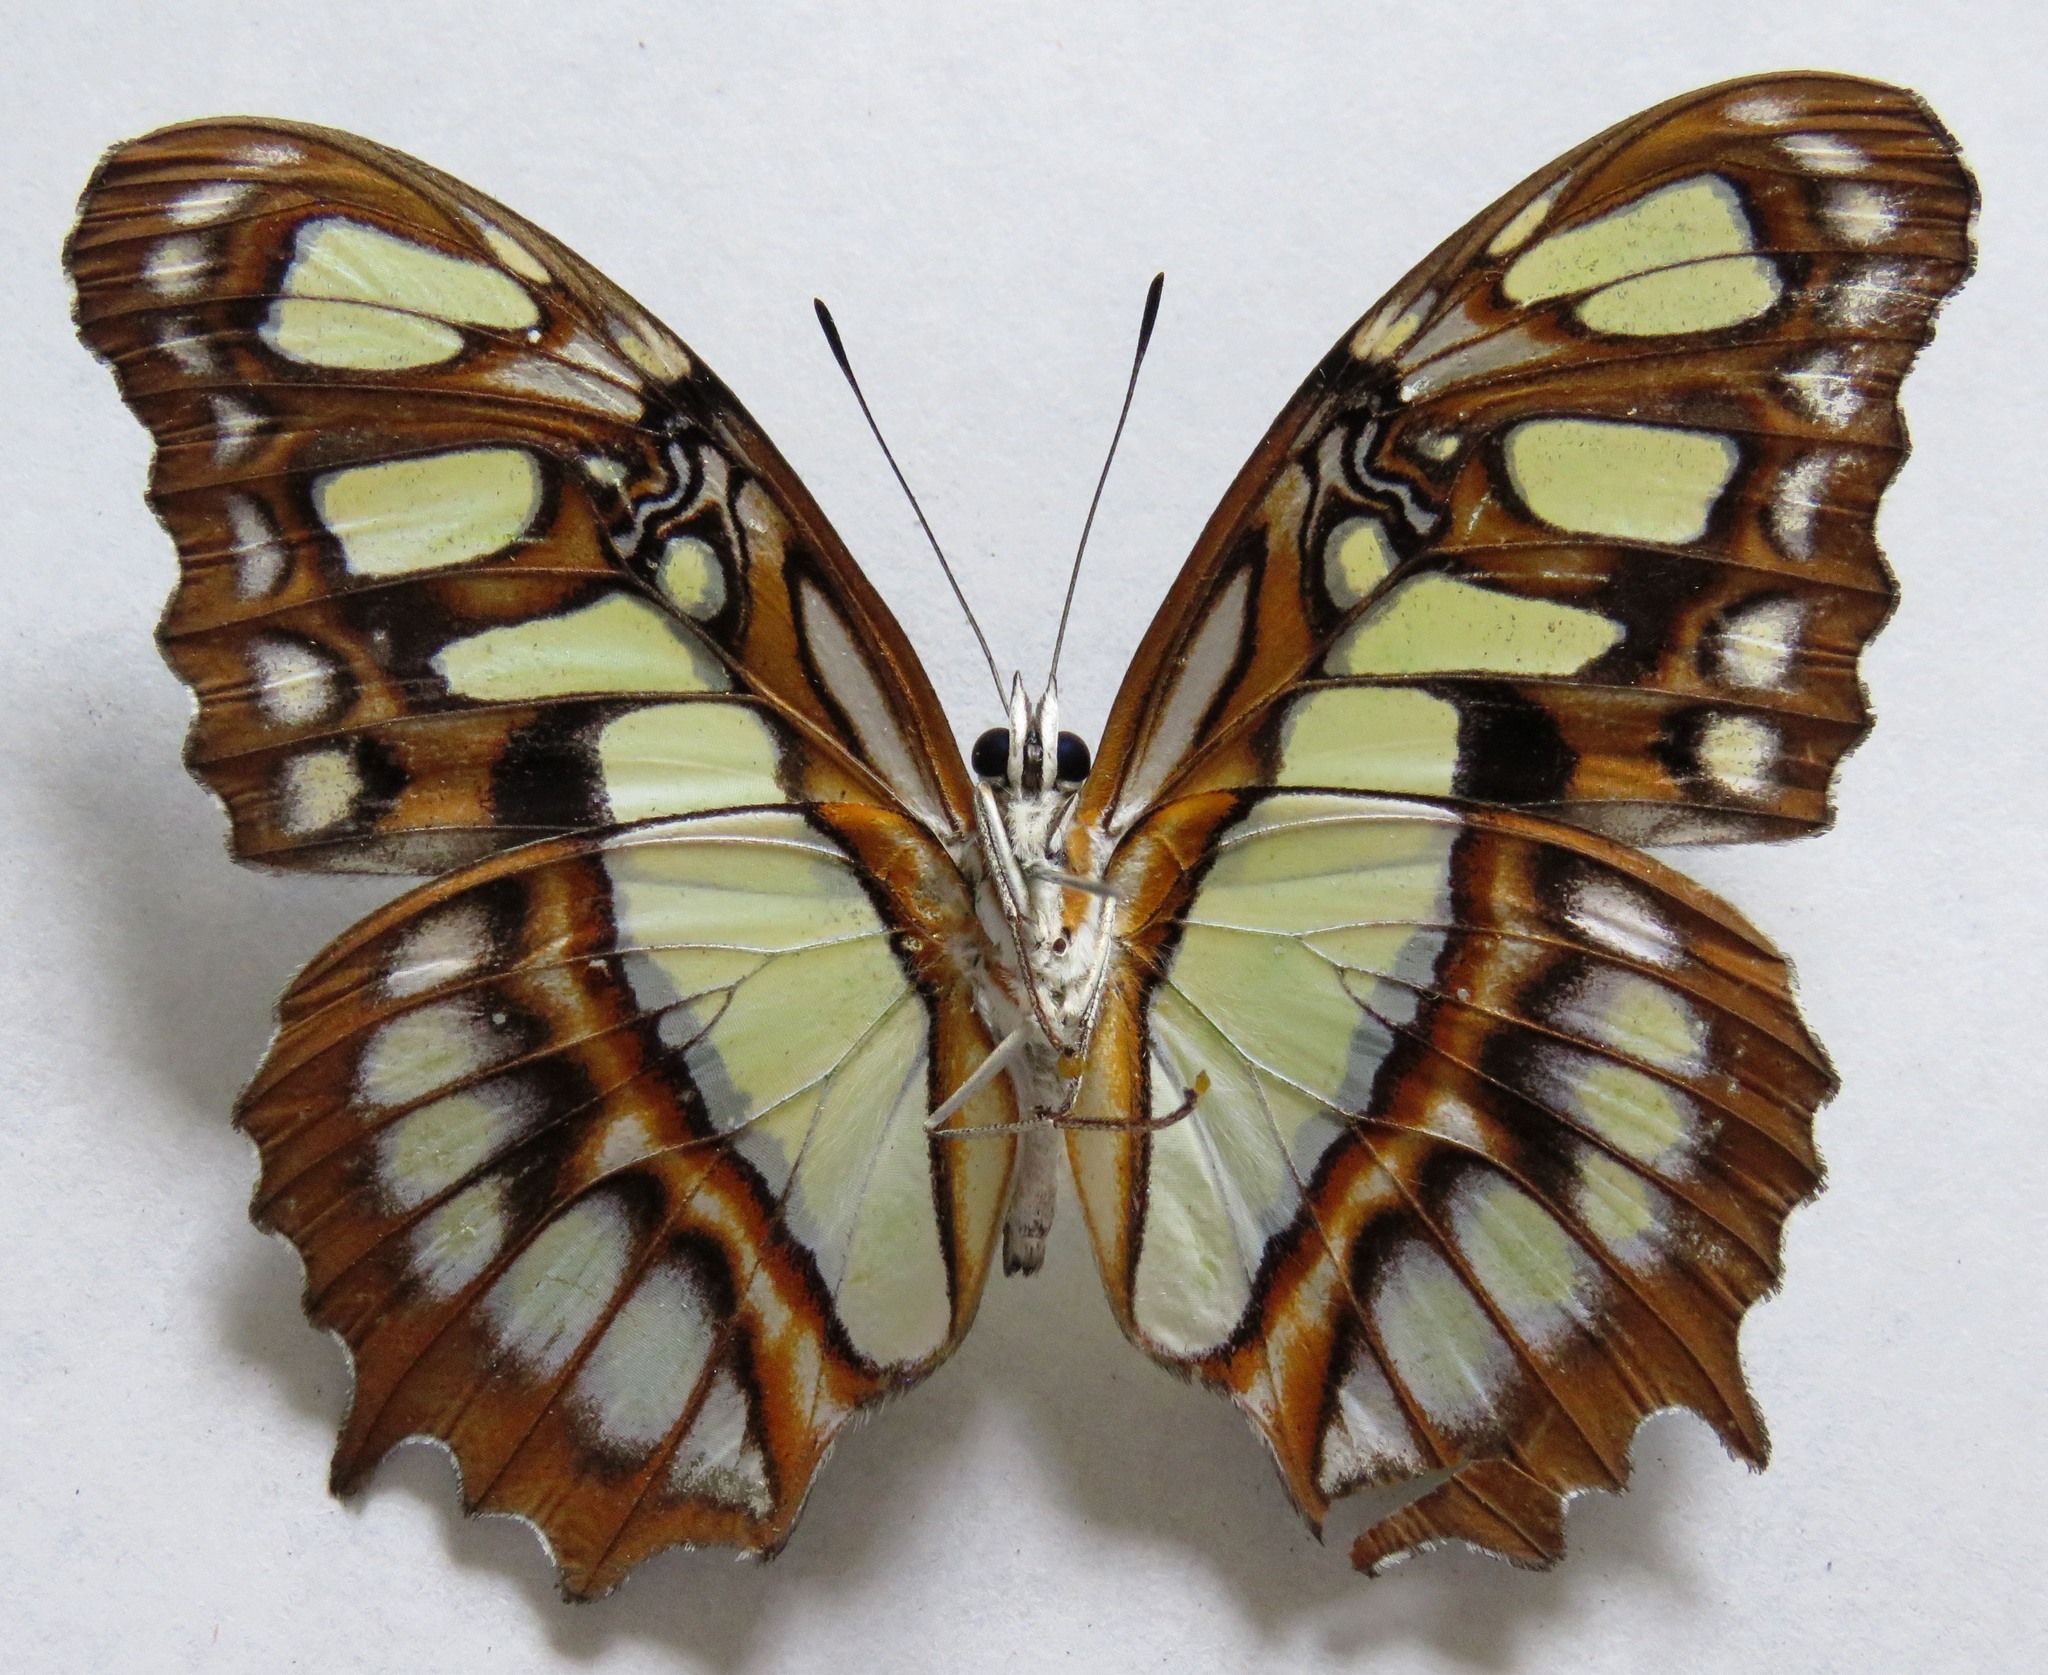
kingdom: Animalia
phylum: Arthropoda
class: Insecta
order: Lepidoptera
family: Nymphalidae
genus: Siproeta
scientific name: Siproeta stelenes
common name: Malachite
